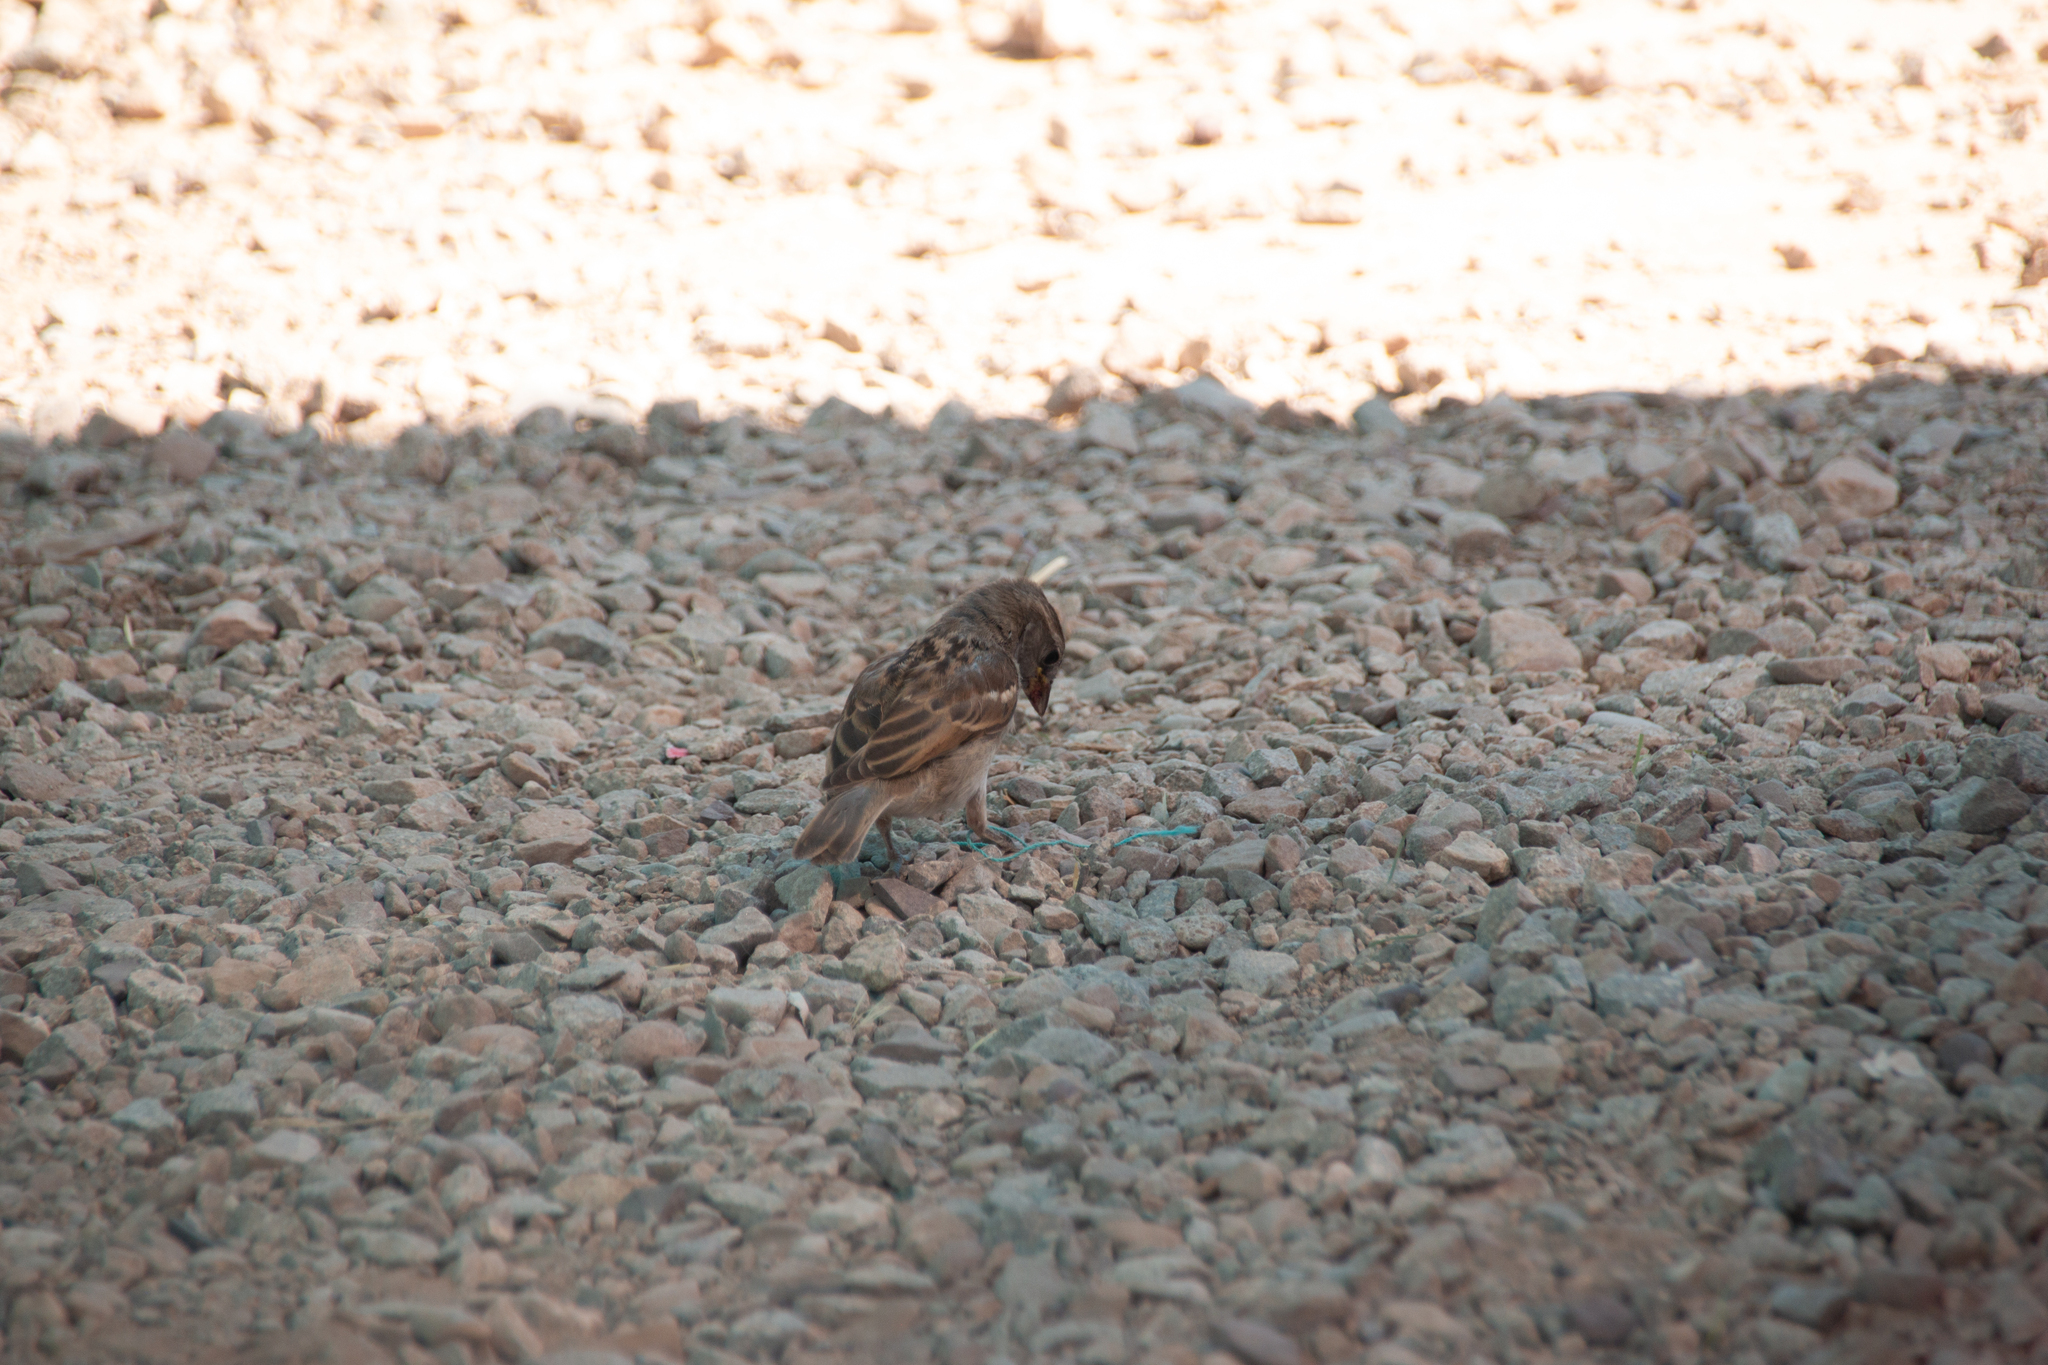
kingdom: Animalia
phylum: Chordata
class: Aves
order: Passeriformes
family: Passeridae
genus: Passer
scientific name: Passer domesticus
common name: House sparrow
